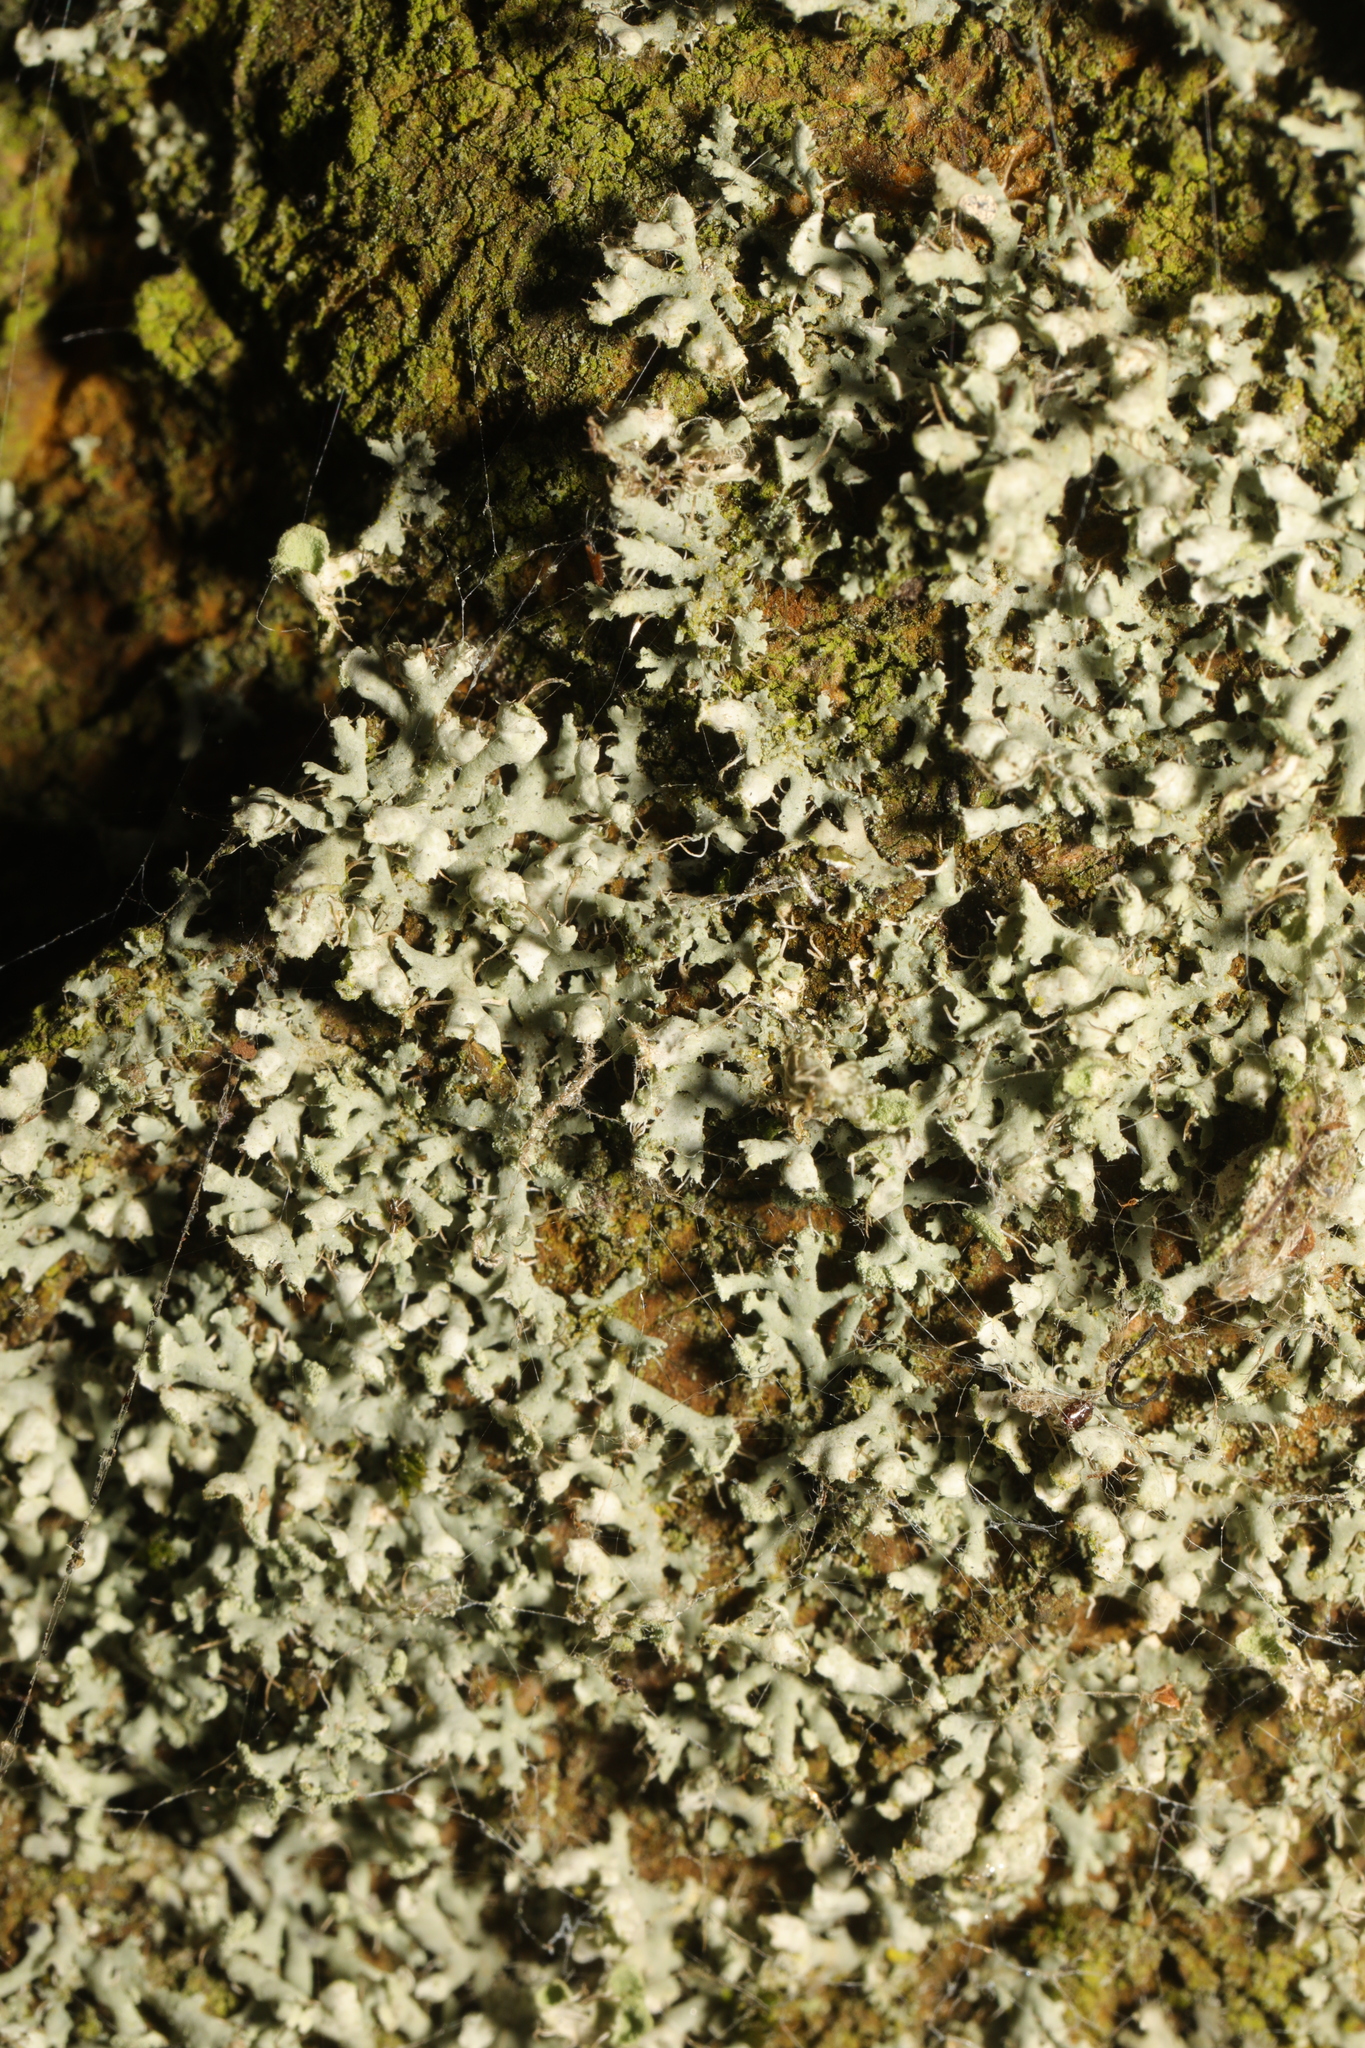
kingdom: Fungi
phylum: Ascomycota
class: Lecanoromycetes
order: Caliciales
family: Physciaceae
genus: Physcia
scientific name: Physcia adscendens
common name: Hooded rosette lichen
